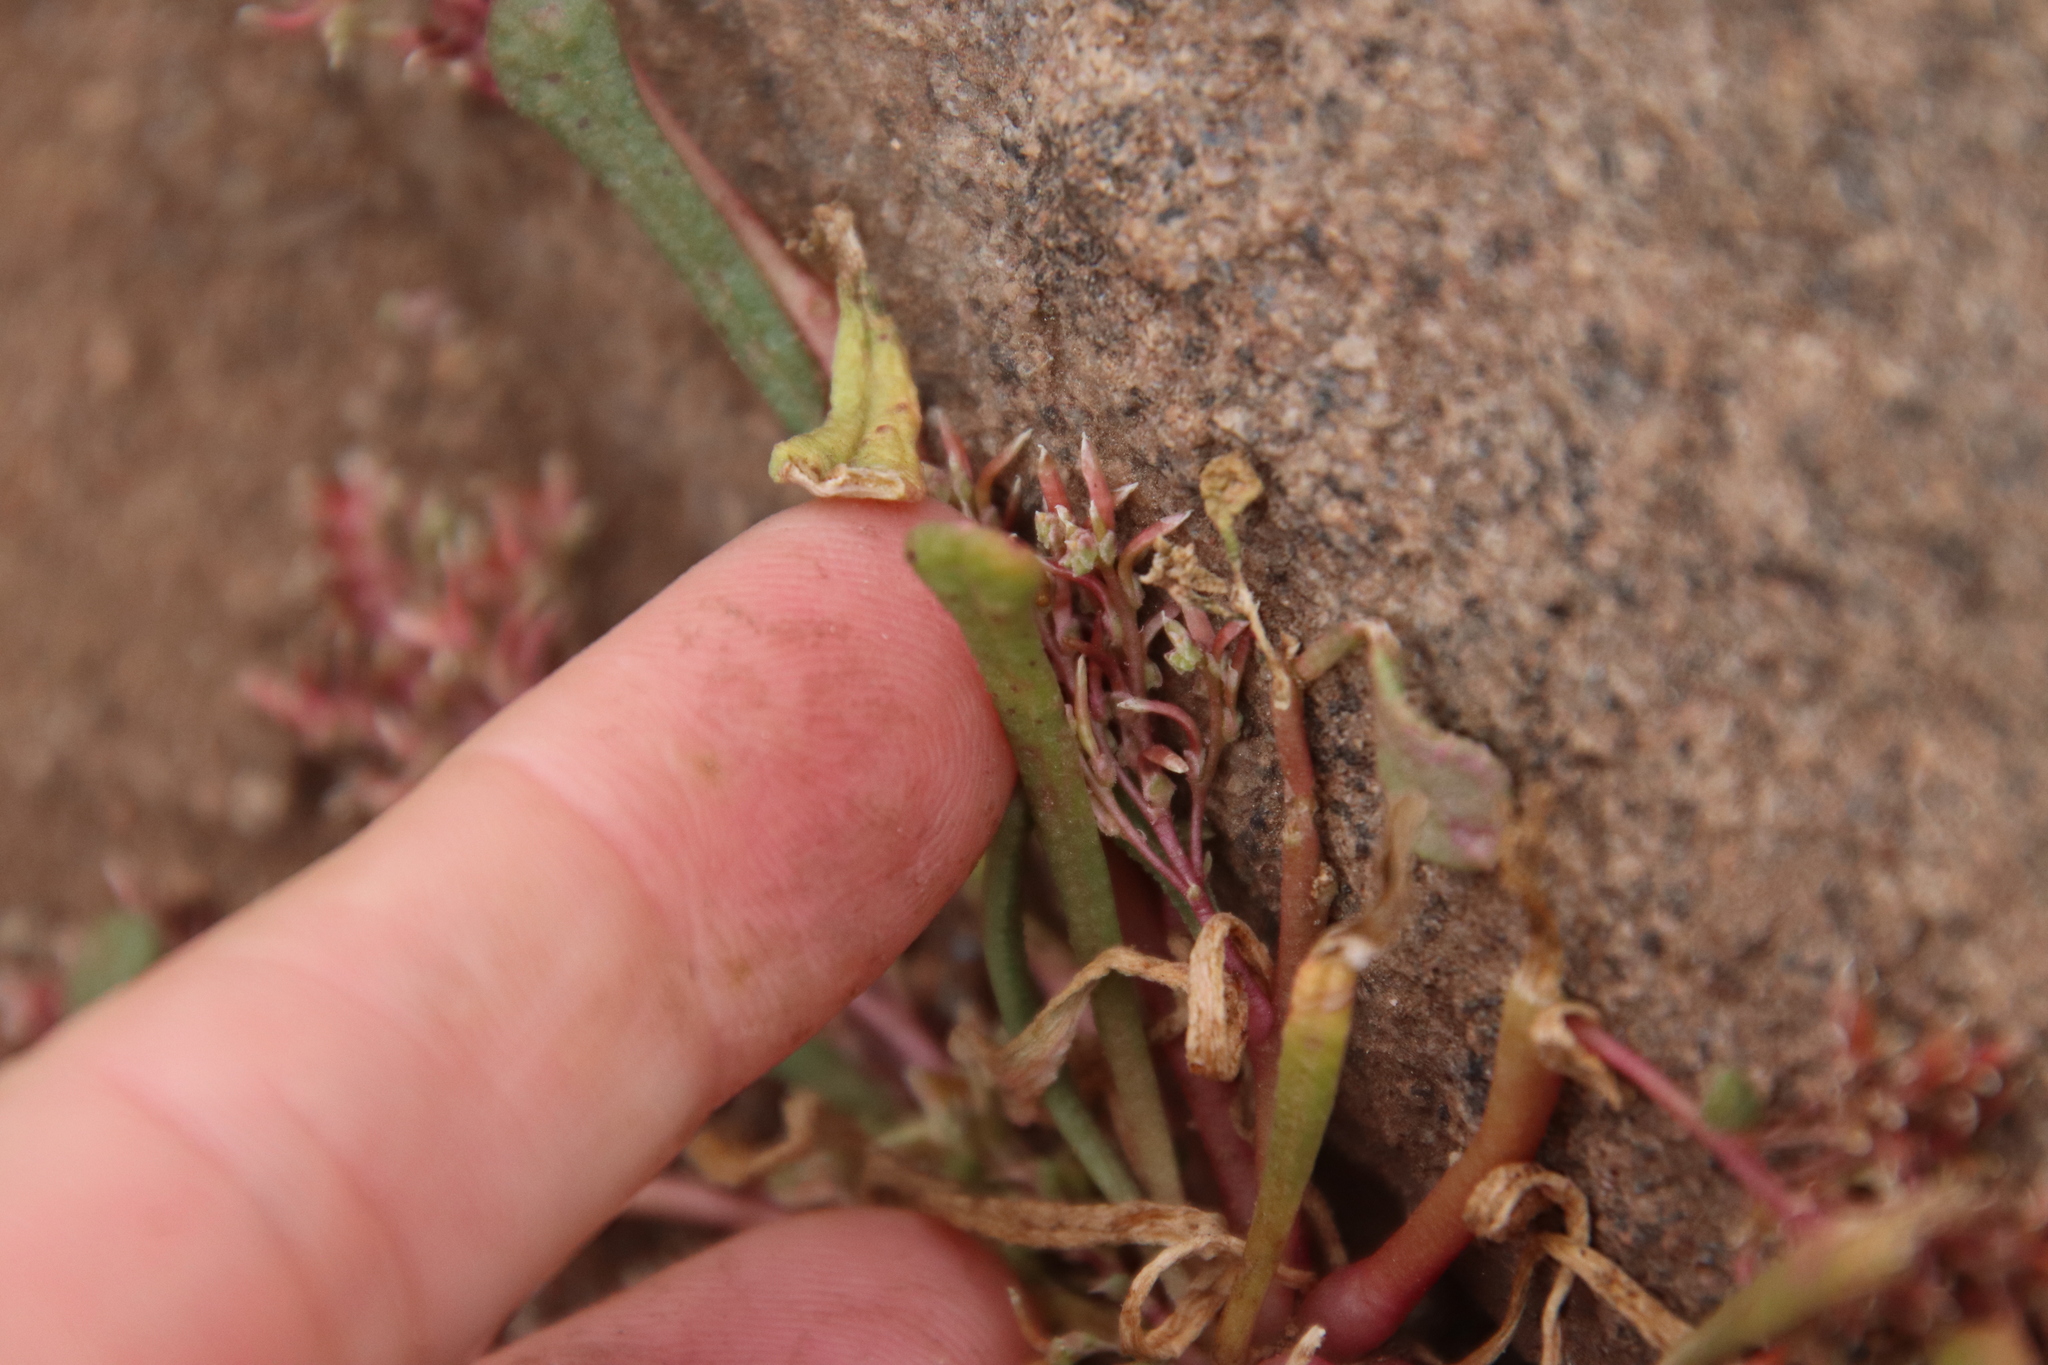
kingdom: Plantae
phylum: Tracheophyta
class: Magnoliopsida
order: Caryophyllales
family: Montiaceae
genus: Calyptridium
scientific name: Calyptridium monandrum
